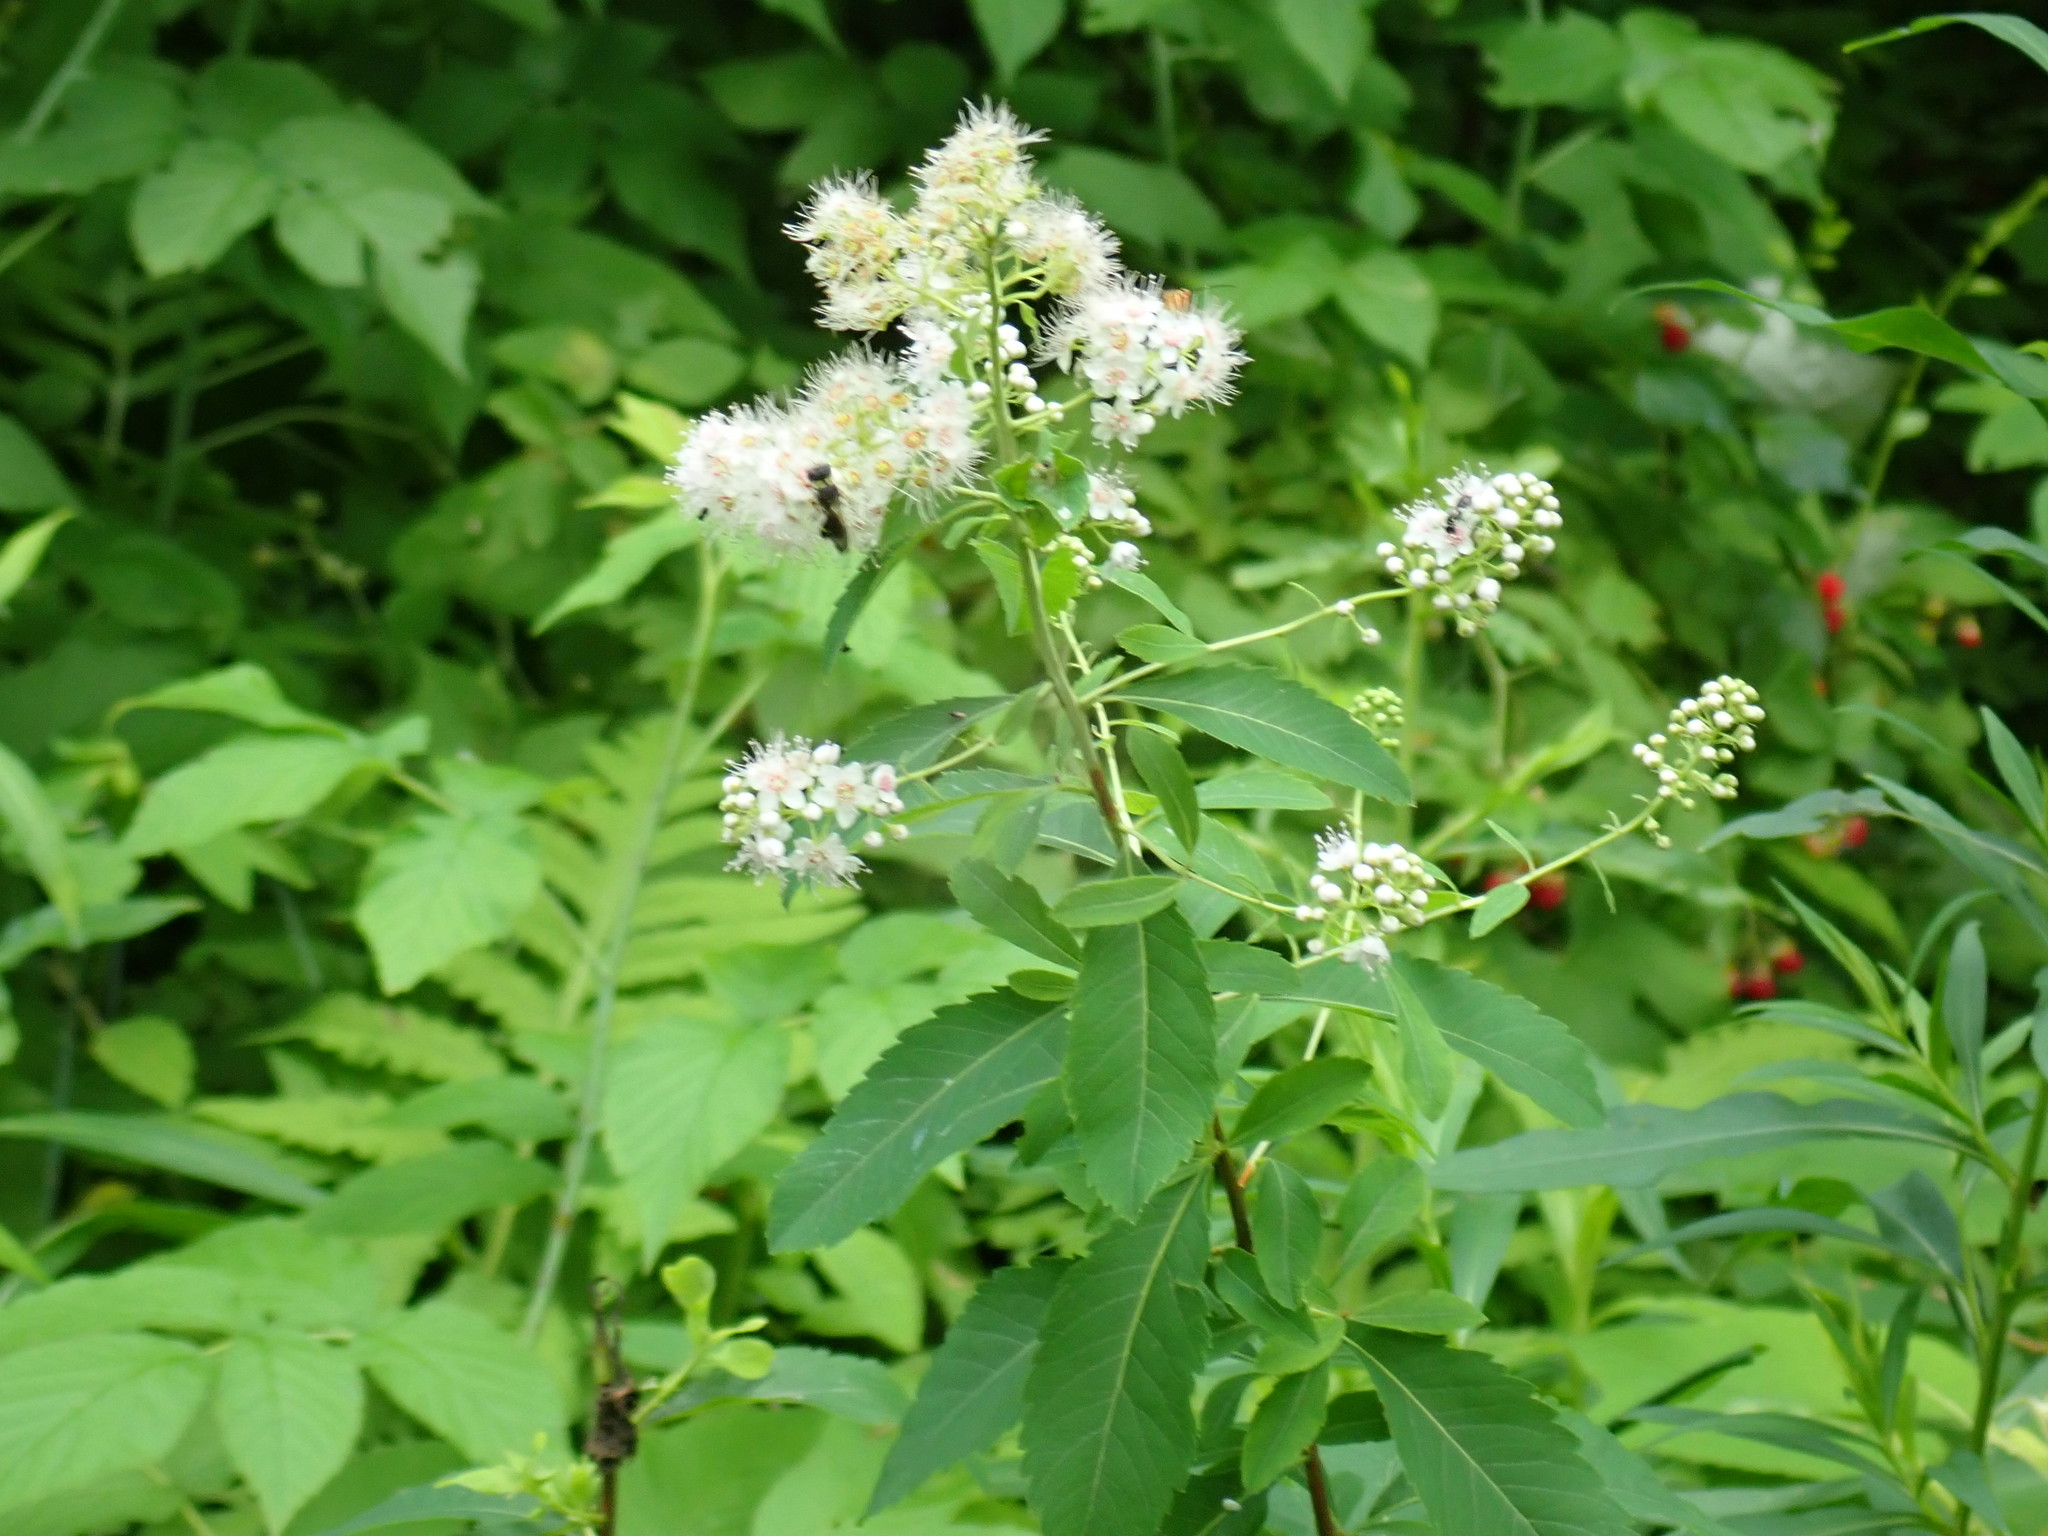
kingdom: Plantae
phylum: Tracheophyta
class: Magnoliopsida
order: Rosales
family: Rosaceae
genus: Spiraea
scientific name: Spiraea alba
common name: Pale bridewort
